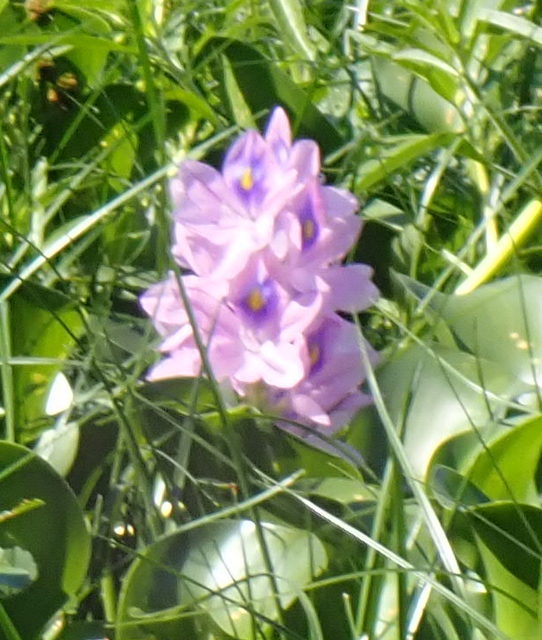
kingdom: Plantae
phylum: Tracheophyta
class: Liliopsida
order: Commelinales
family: Pontederiaceae
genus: Pontederia
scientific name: Pontederia crassipes
